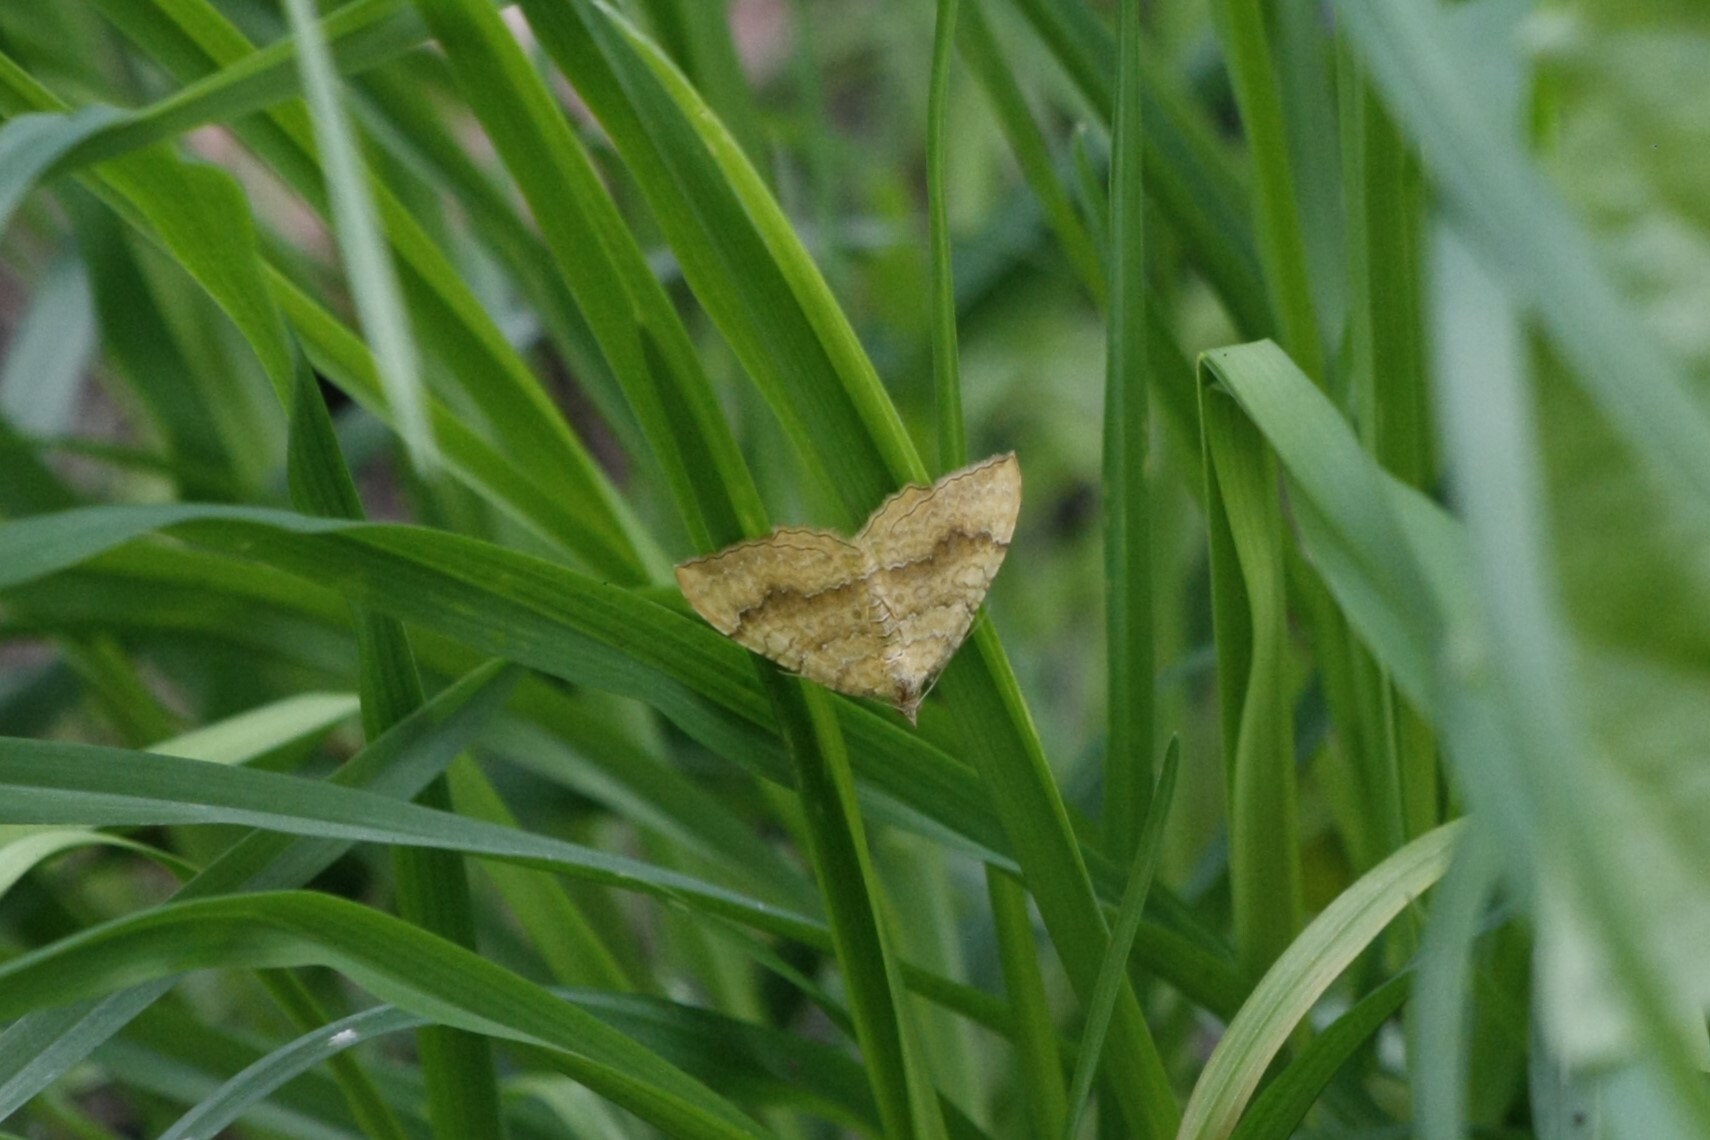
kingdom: Animalia
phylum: Arthropoda
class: Insecta
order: Lepidoptera
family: Geometridae
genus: Camptogramma
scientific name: Camptogramma bilineata
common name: Yellow shell
